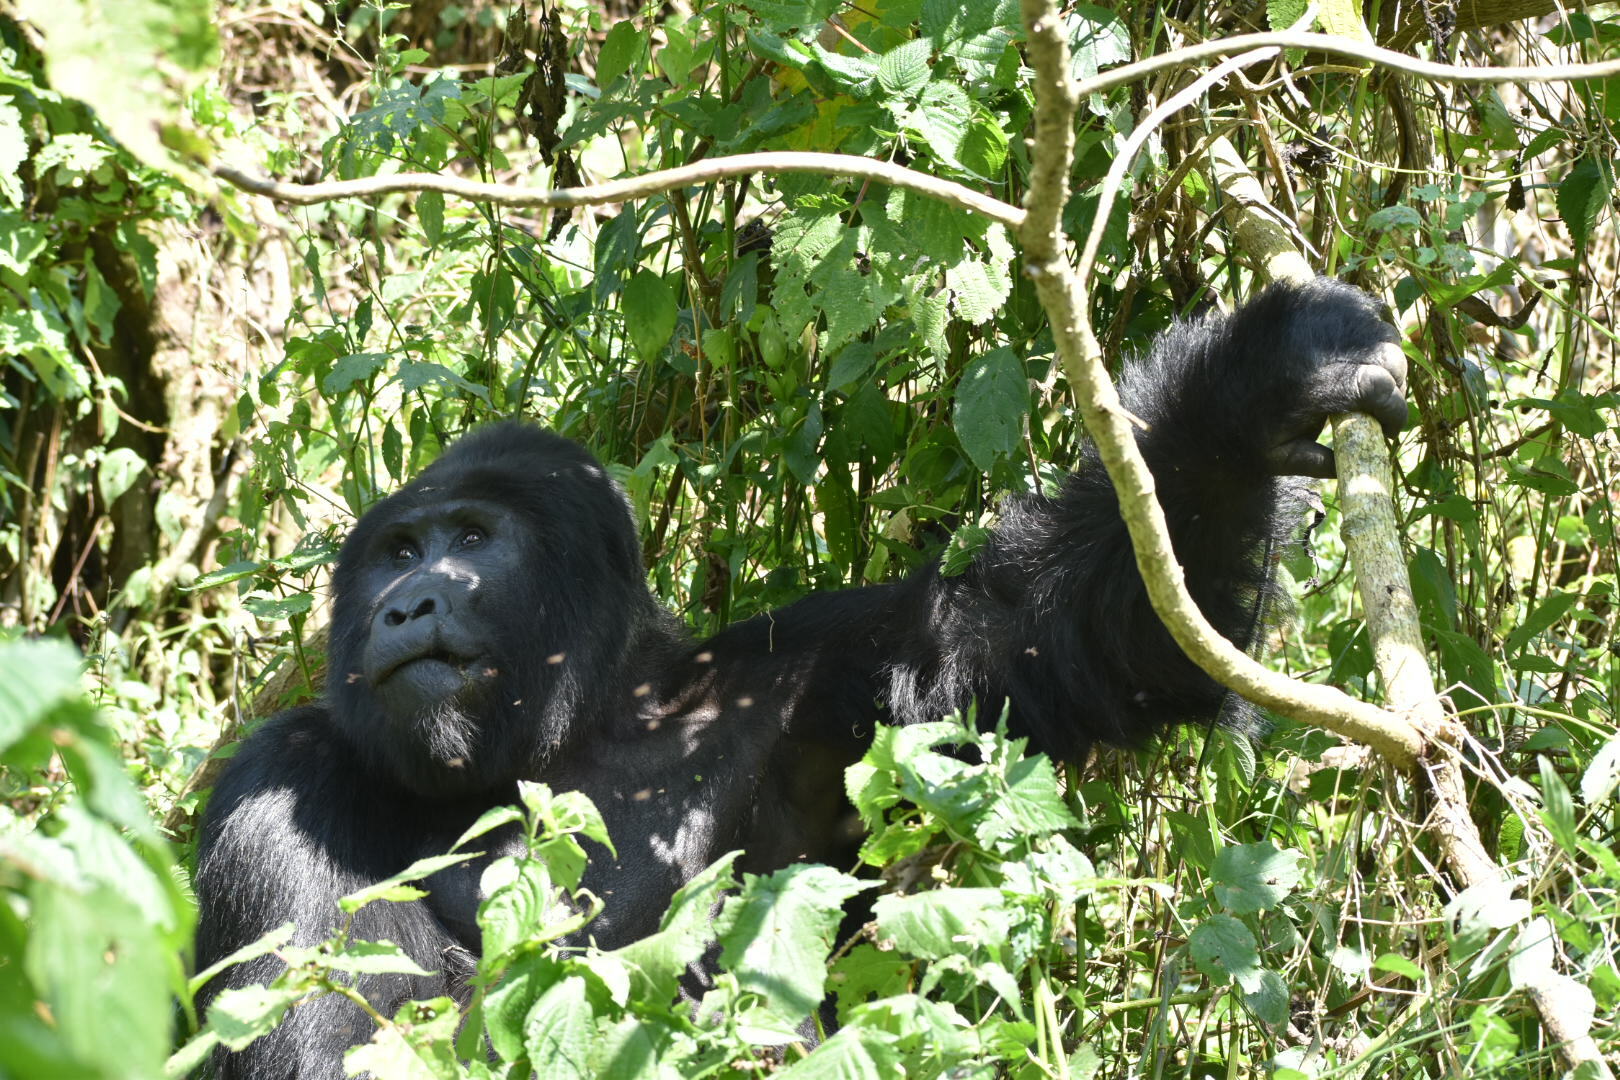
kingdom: Animalia
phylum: Chordata
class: Mammalia
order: Primates
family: Hominidae
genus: Gorilla
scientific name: Gorilla beringei
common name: Eastern gorilla
